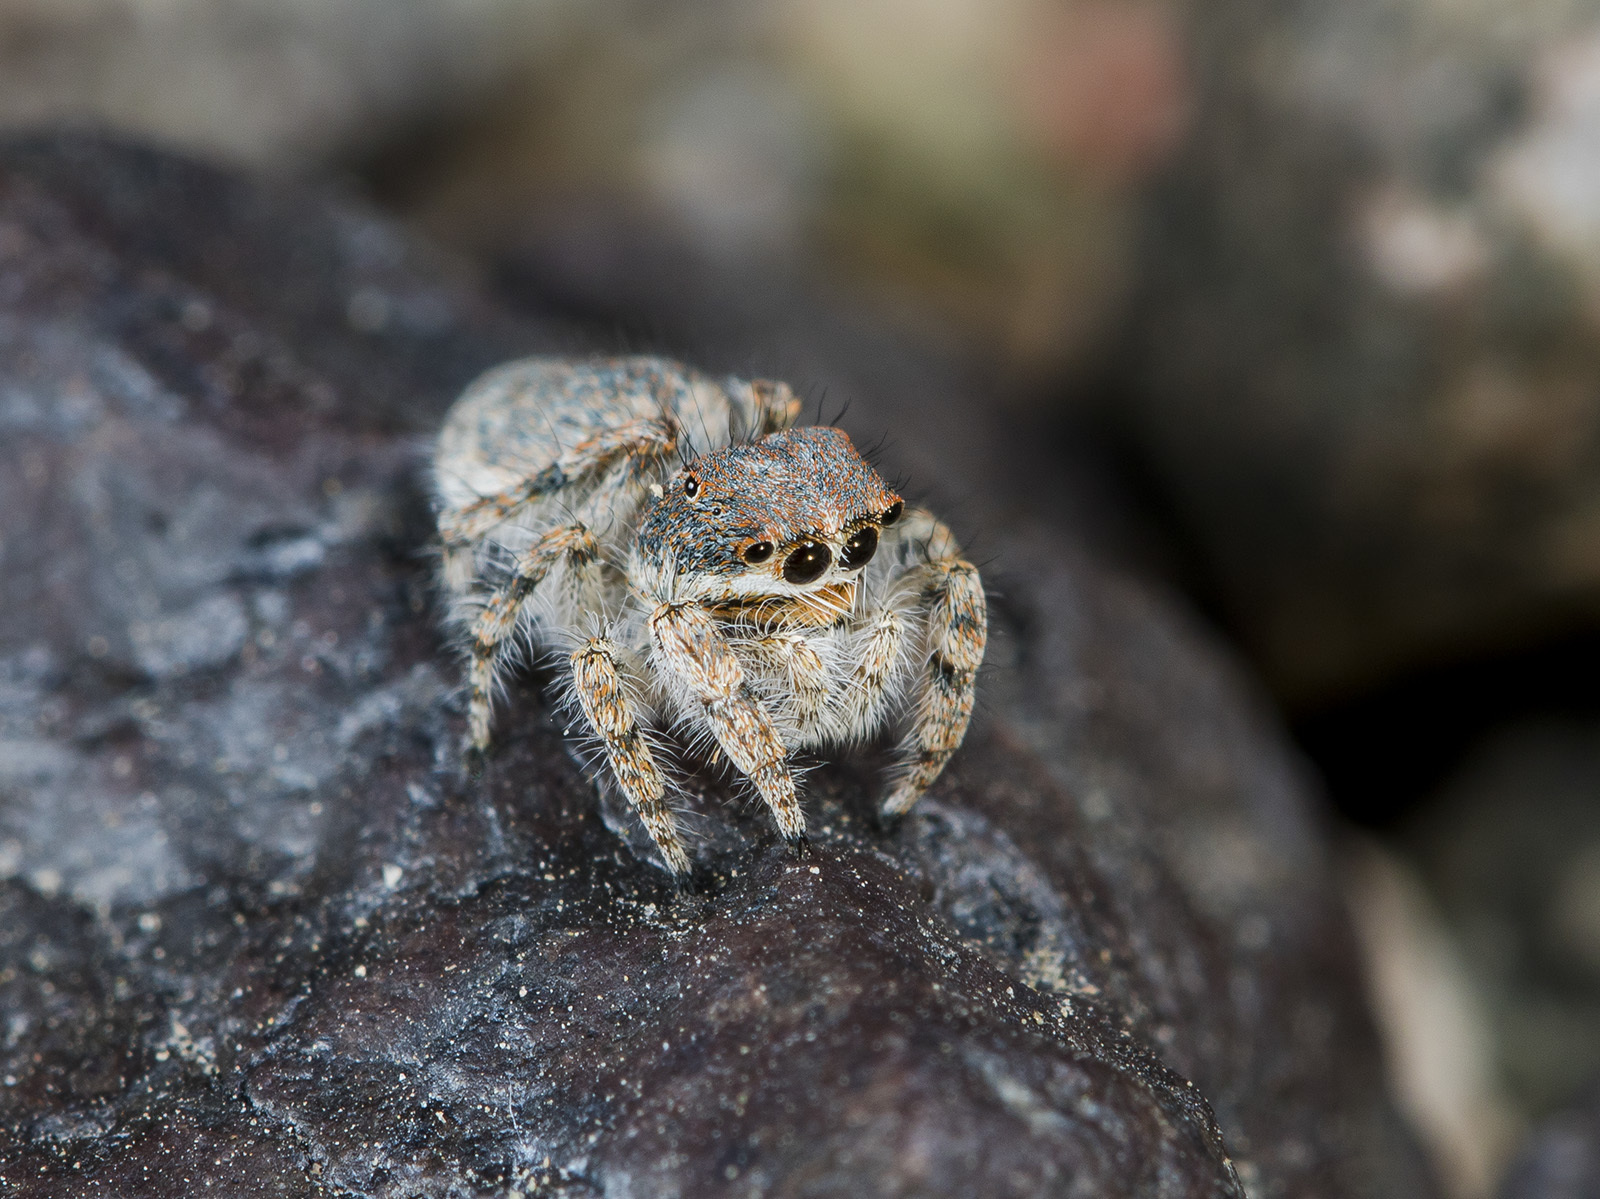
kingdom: Animalia
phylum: Arthropoda
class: Arachnida
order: Araneae
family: Salticidae
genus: Yllenus
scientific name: Yllenus zyuzini
